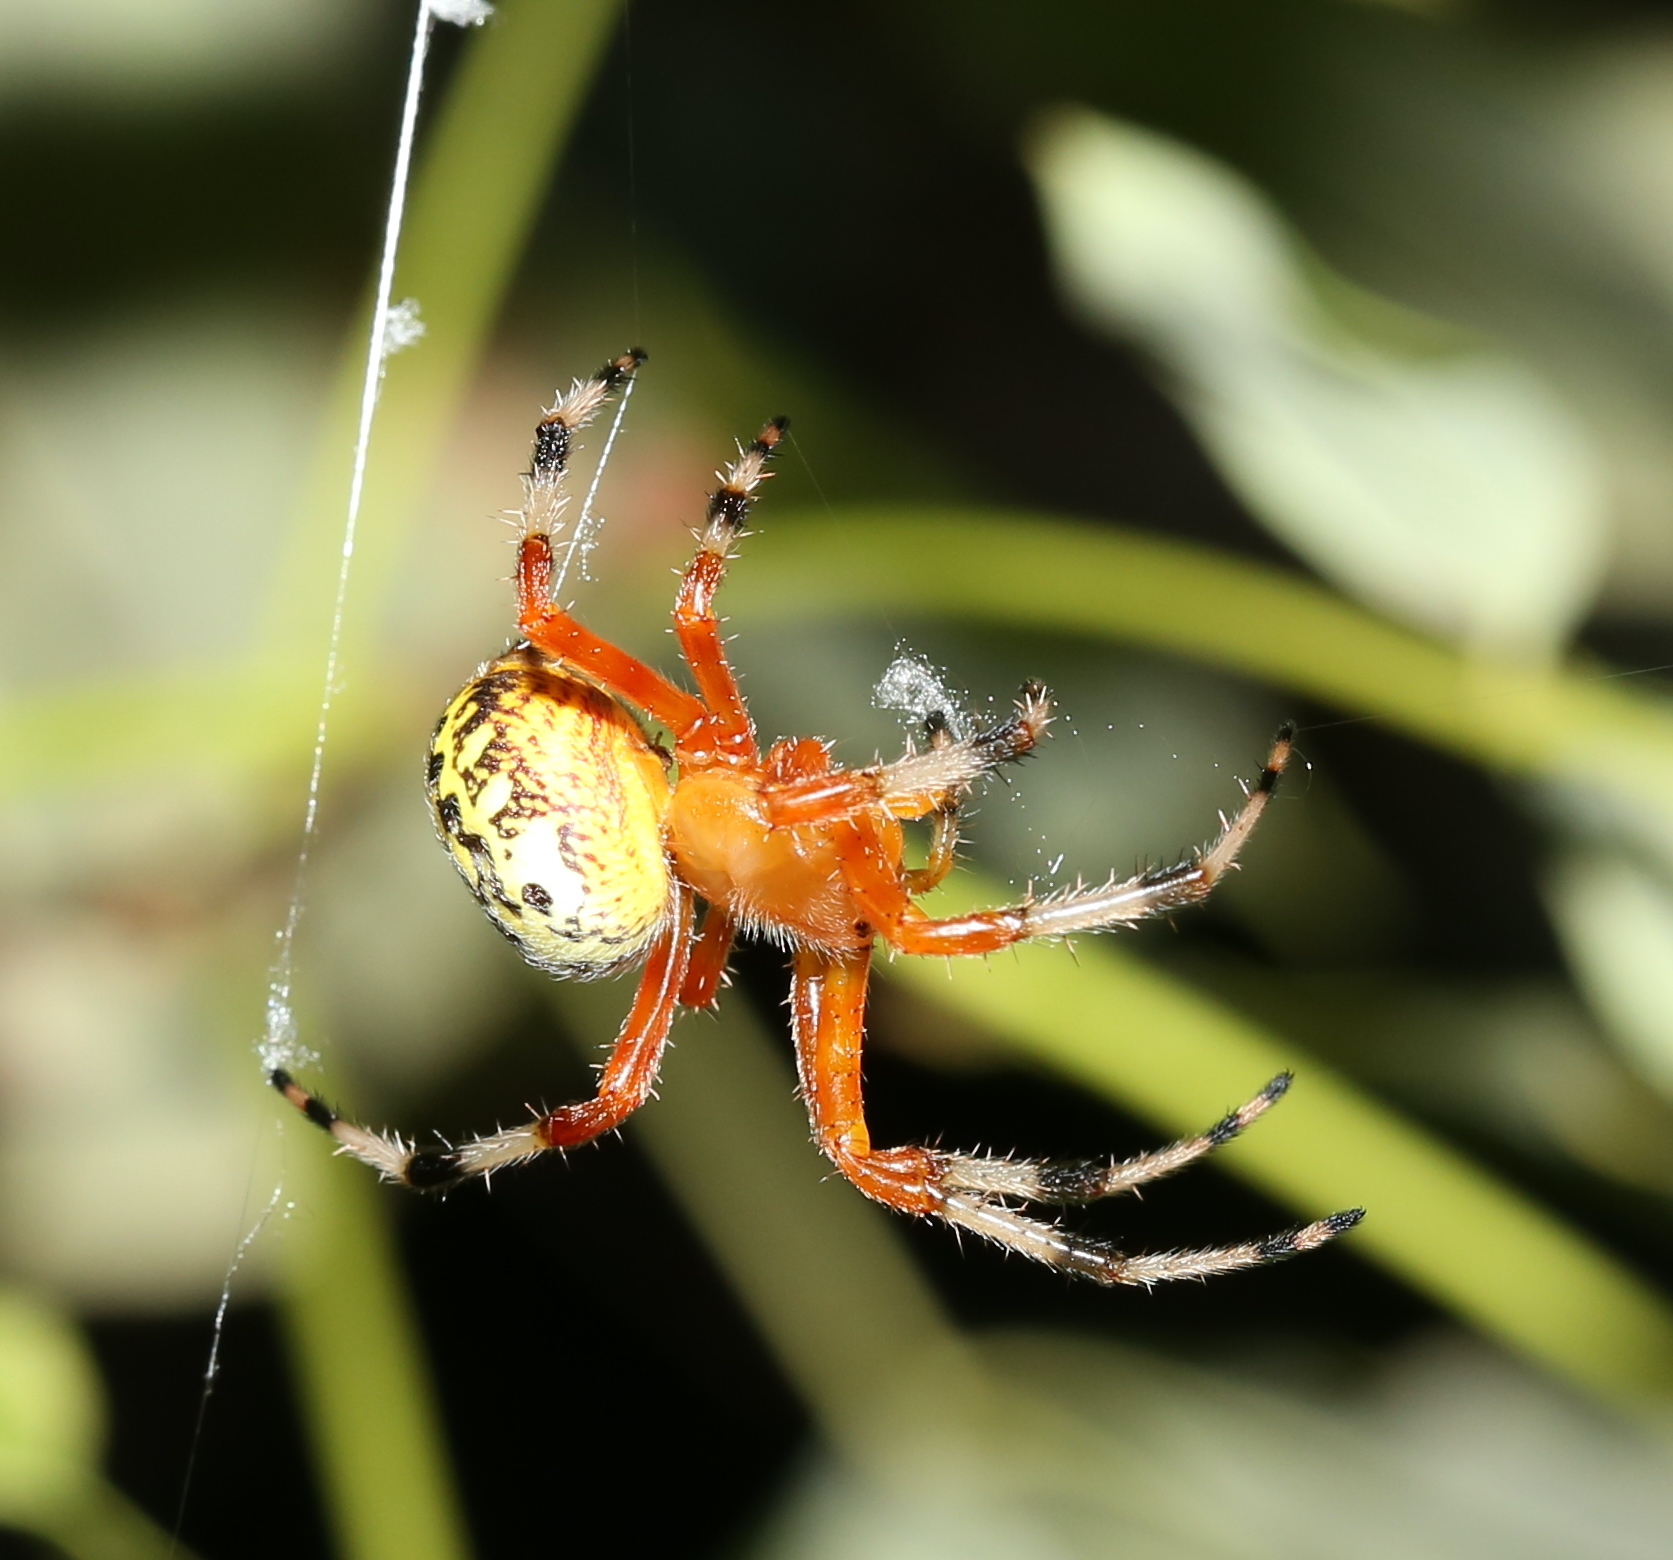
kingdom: Animalia
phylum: Arthropoda
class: Arachnida
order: Araneae
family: Araneidae
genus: Araneus
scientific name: Araneus marmoreus
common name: Marbled orbweaver
